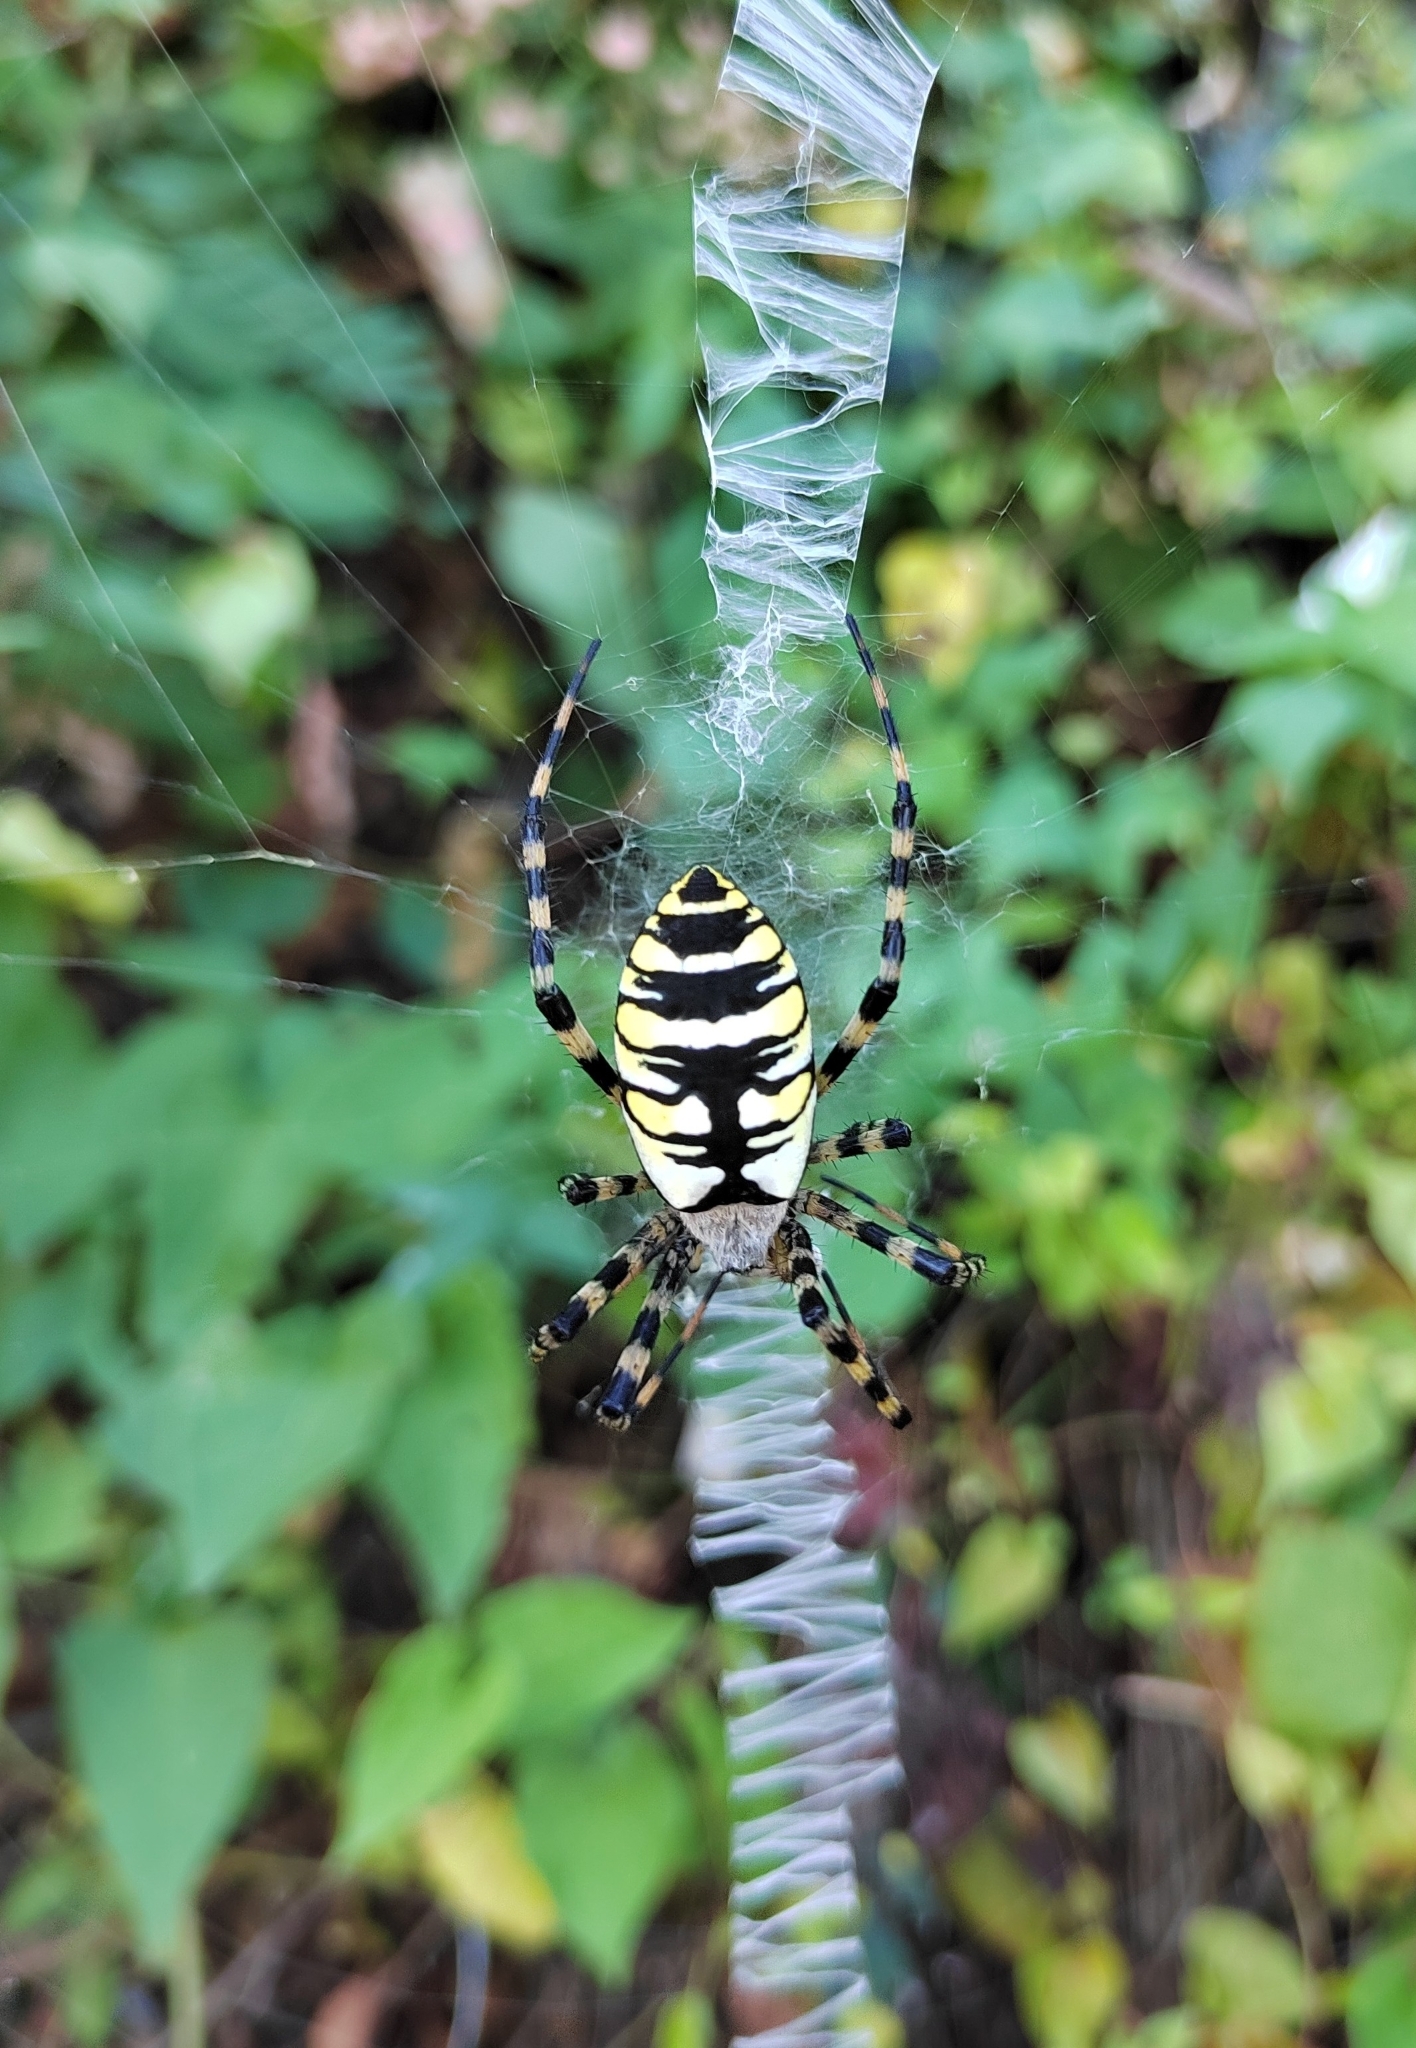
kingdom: Animalia
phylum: Arthropoda
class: Arachnida
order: Araneae
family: Araneidae
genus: Argiope
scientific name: Argiope aurantia
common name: Orb weavers
